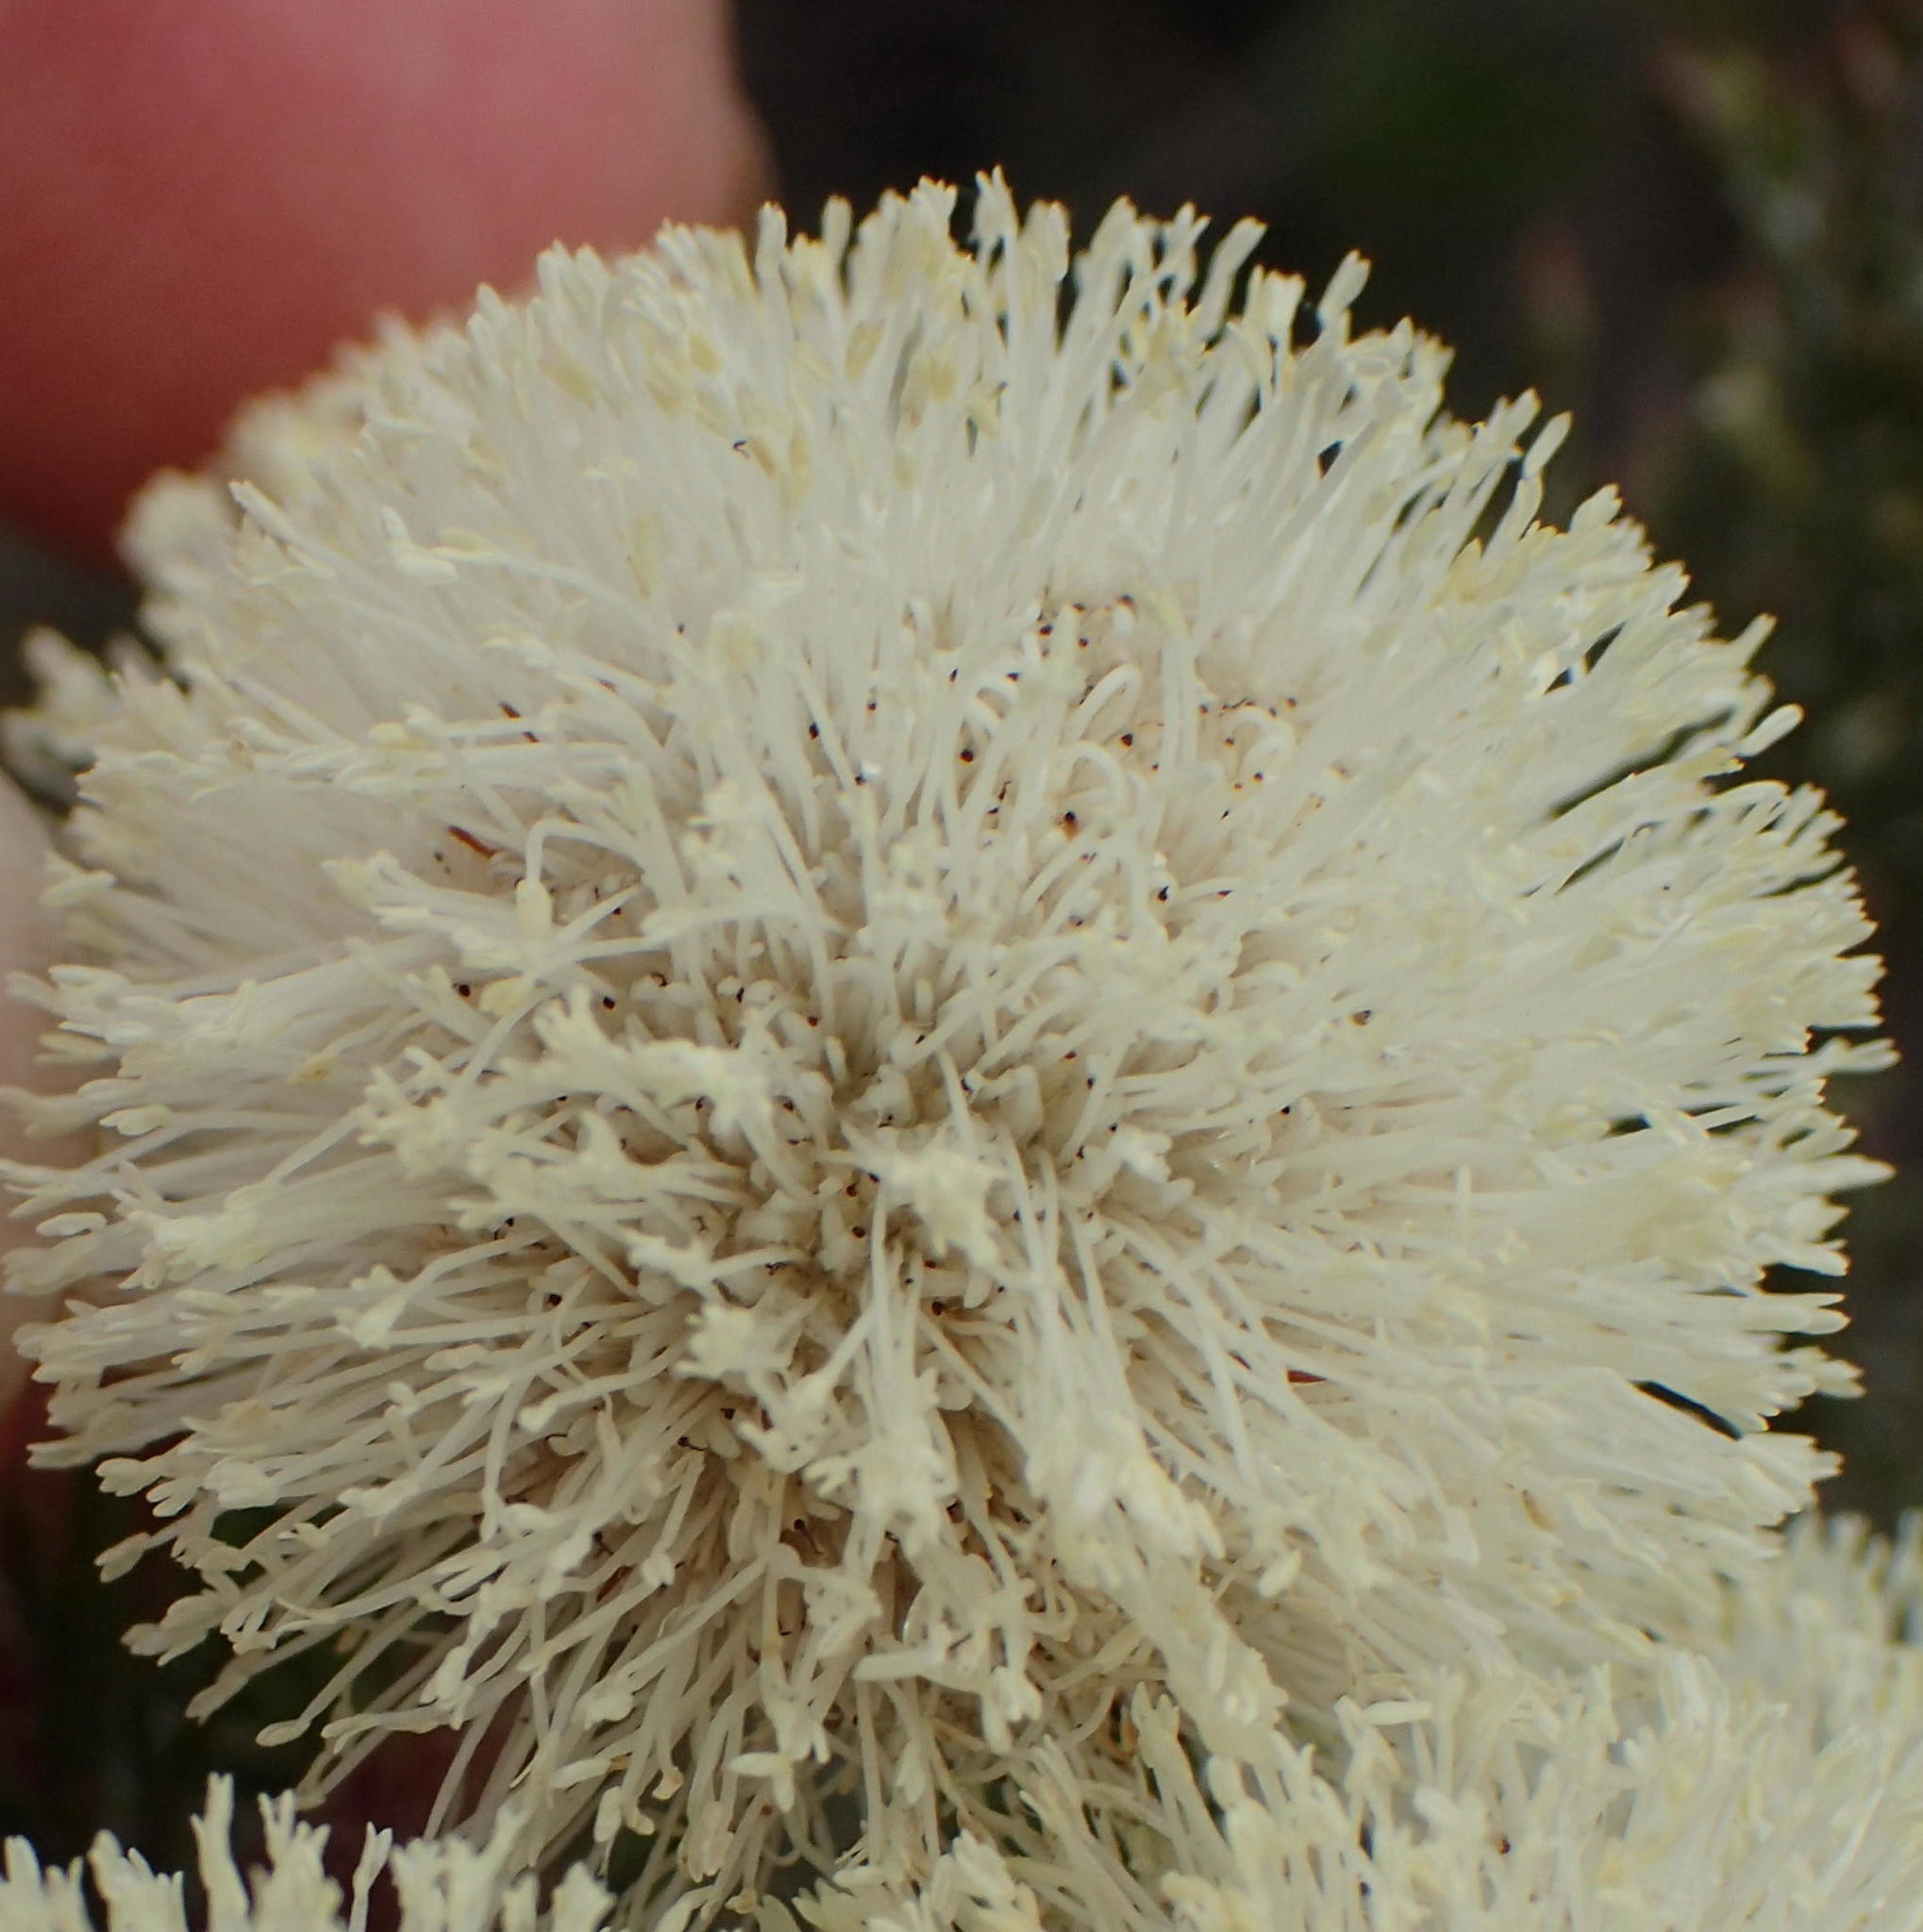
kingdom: Plantae
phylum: Tracheophyta
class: Magnoliopsida
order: Bruniales
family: Bruniaceae
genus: Berzelia
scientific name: Berzelia abrotanoides
